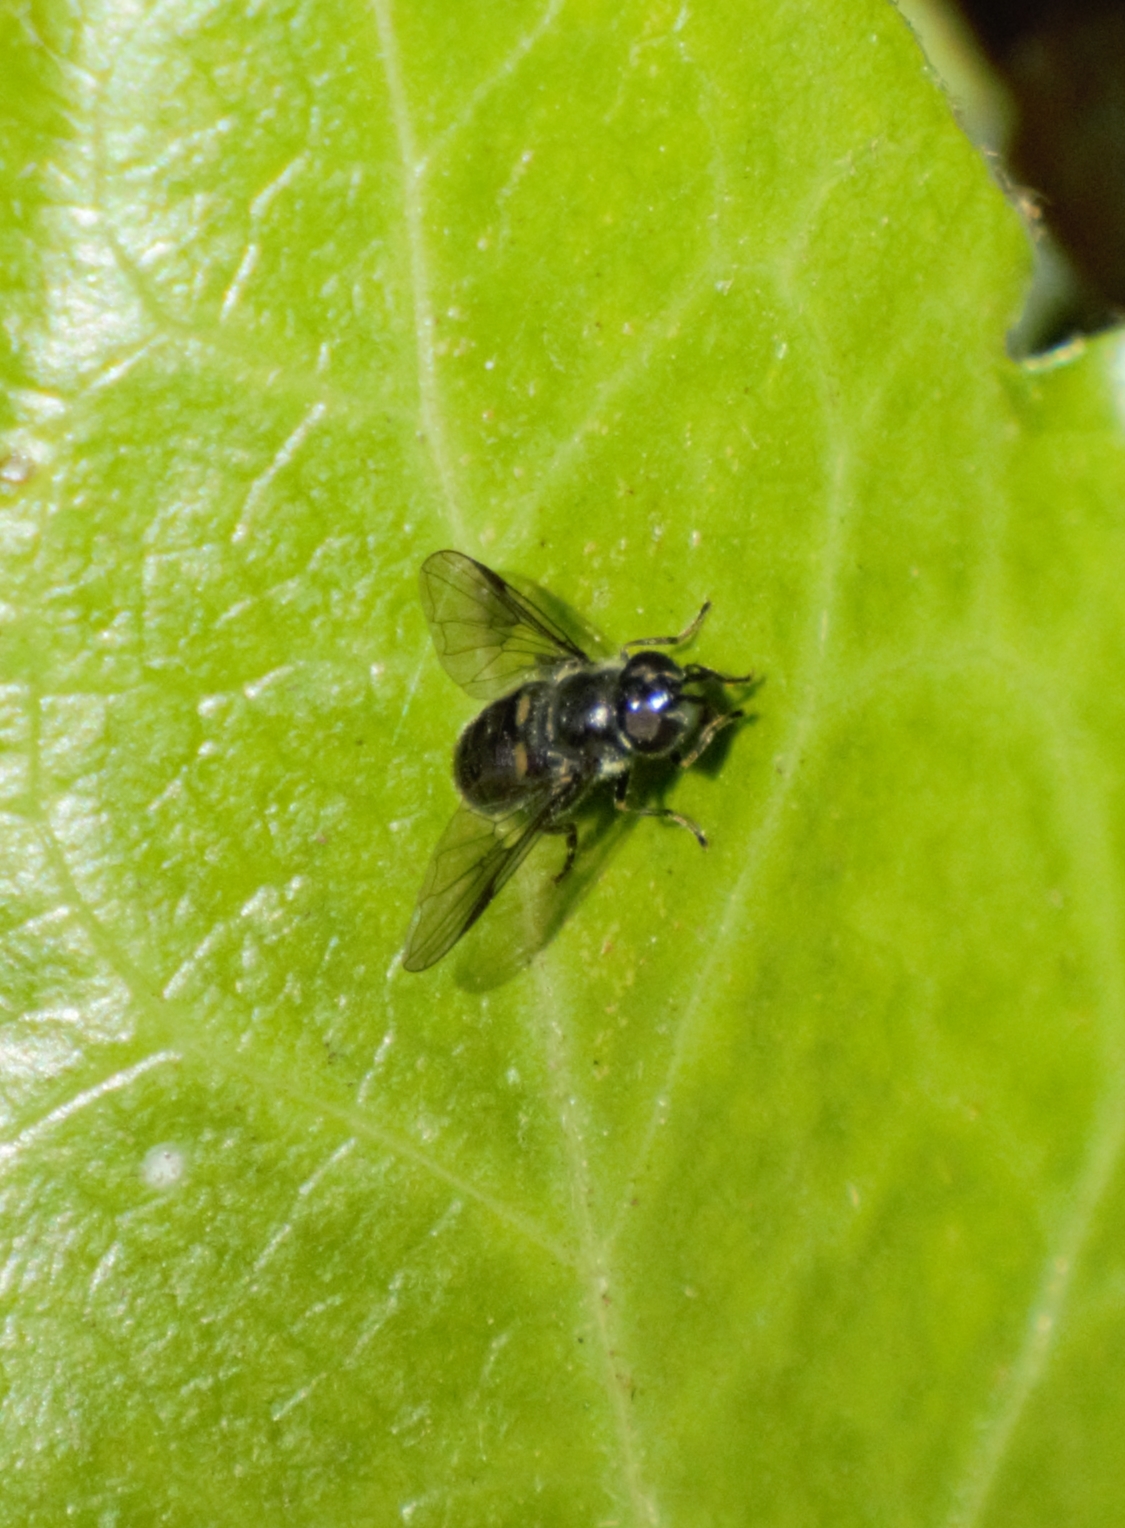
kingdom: Animalia
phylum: Arthropoda
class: Insecta
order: Diptera
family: Syrphidae
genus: Pipiza
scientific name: Pipiza
